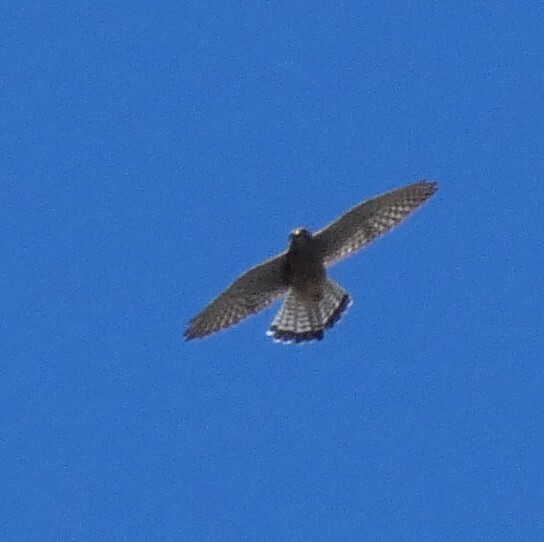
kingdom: Animalia
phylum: Chordata
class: Aves
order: Falconiformes
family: Falconidae
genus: Falco
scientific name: Falco tinnunculus
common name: Common kestrel
